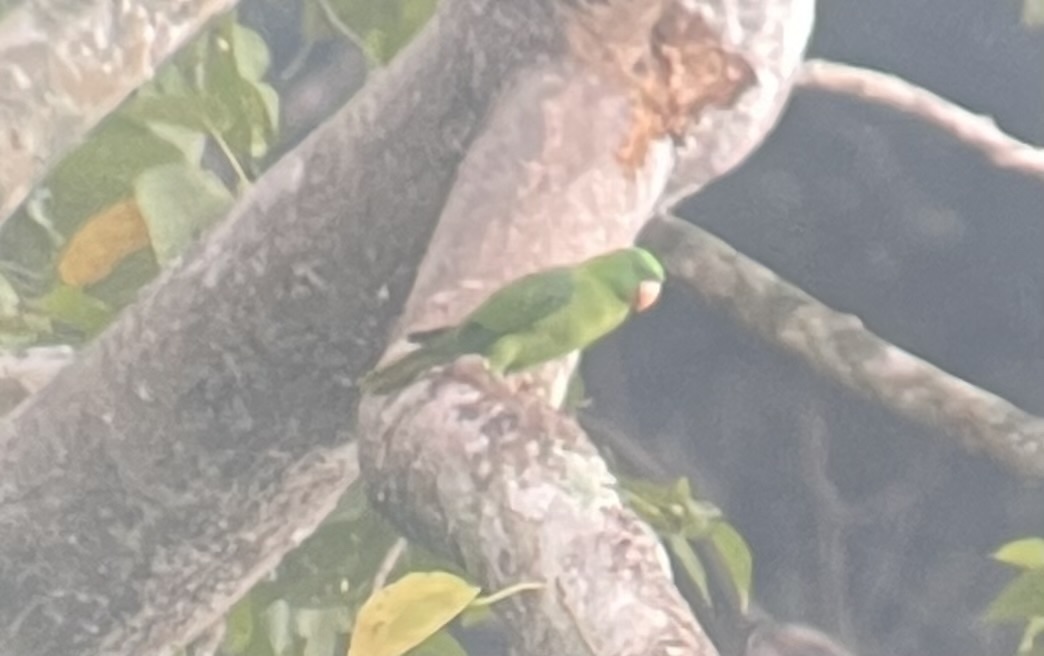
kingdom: Animalia
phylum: Chordata
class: Aves
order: Psittaciformes
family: Psittacidae
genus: Tanygnathus
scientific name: Tanygnathus sumatranus
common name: Blue-backed parrot
